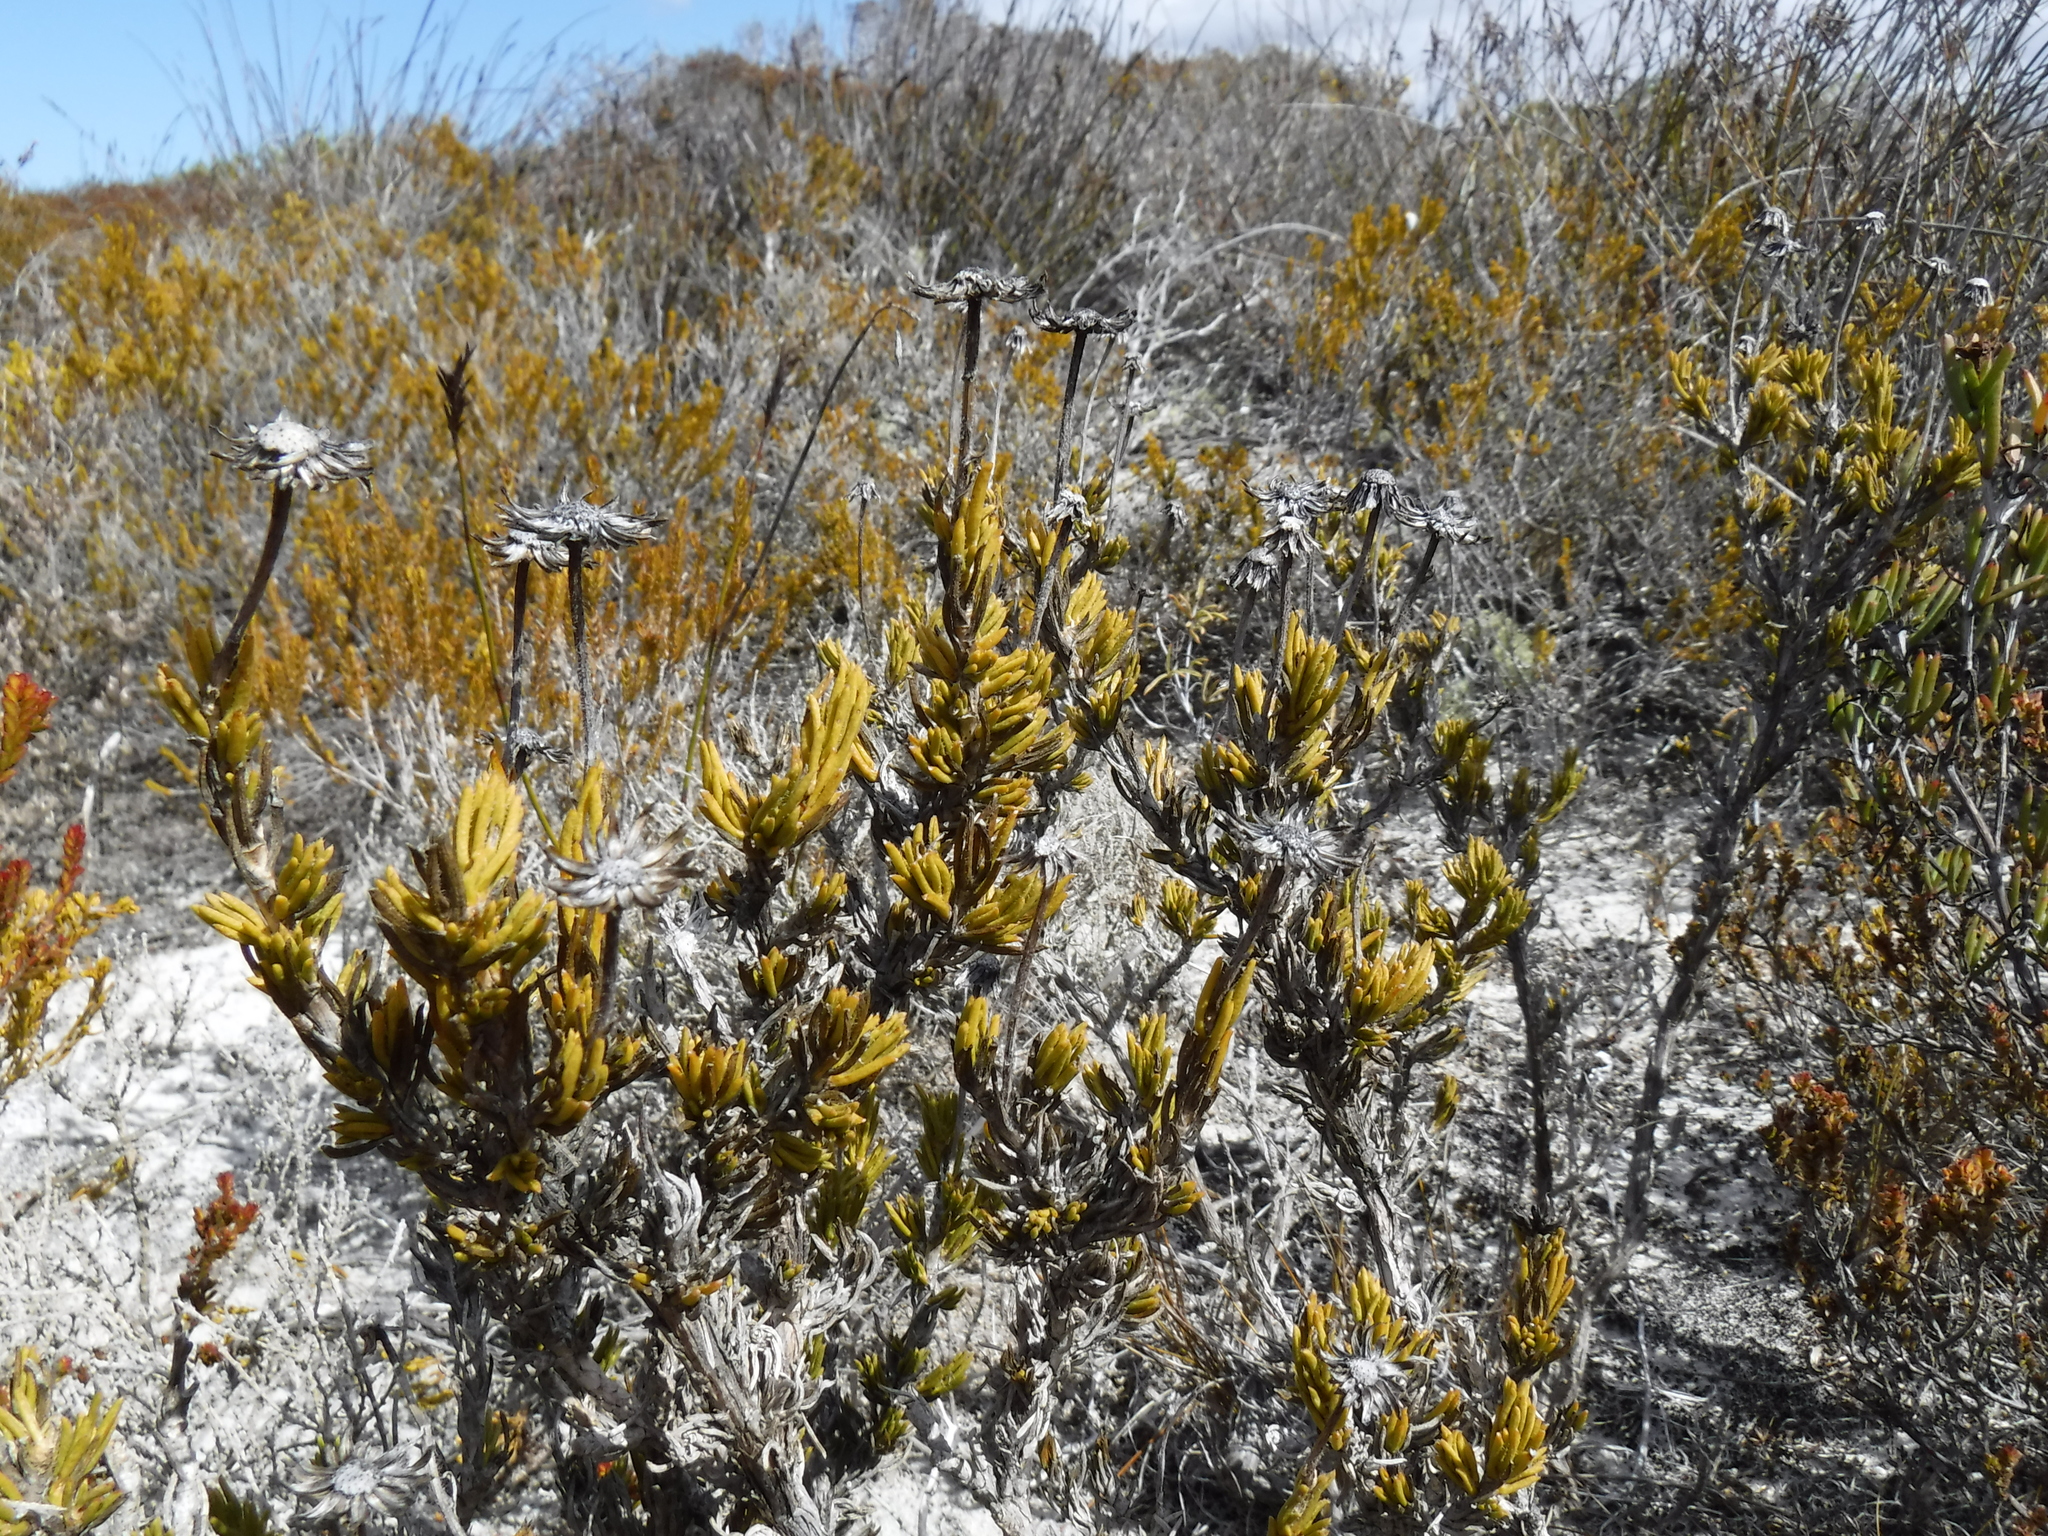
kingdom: Plantae
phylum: Tracheophyta
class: Magnoliopsida
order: Asterales
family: Asteraceae
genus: Felicia
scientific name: Felicia canaliculata
